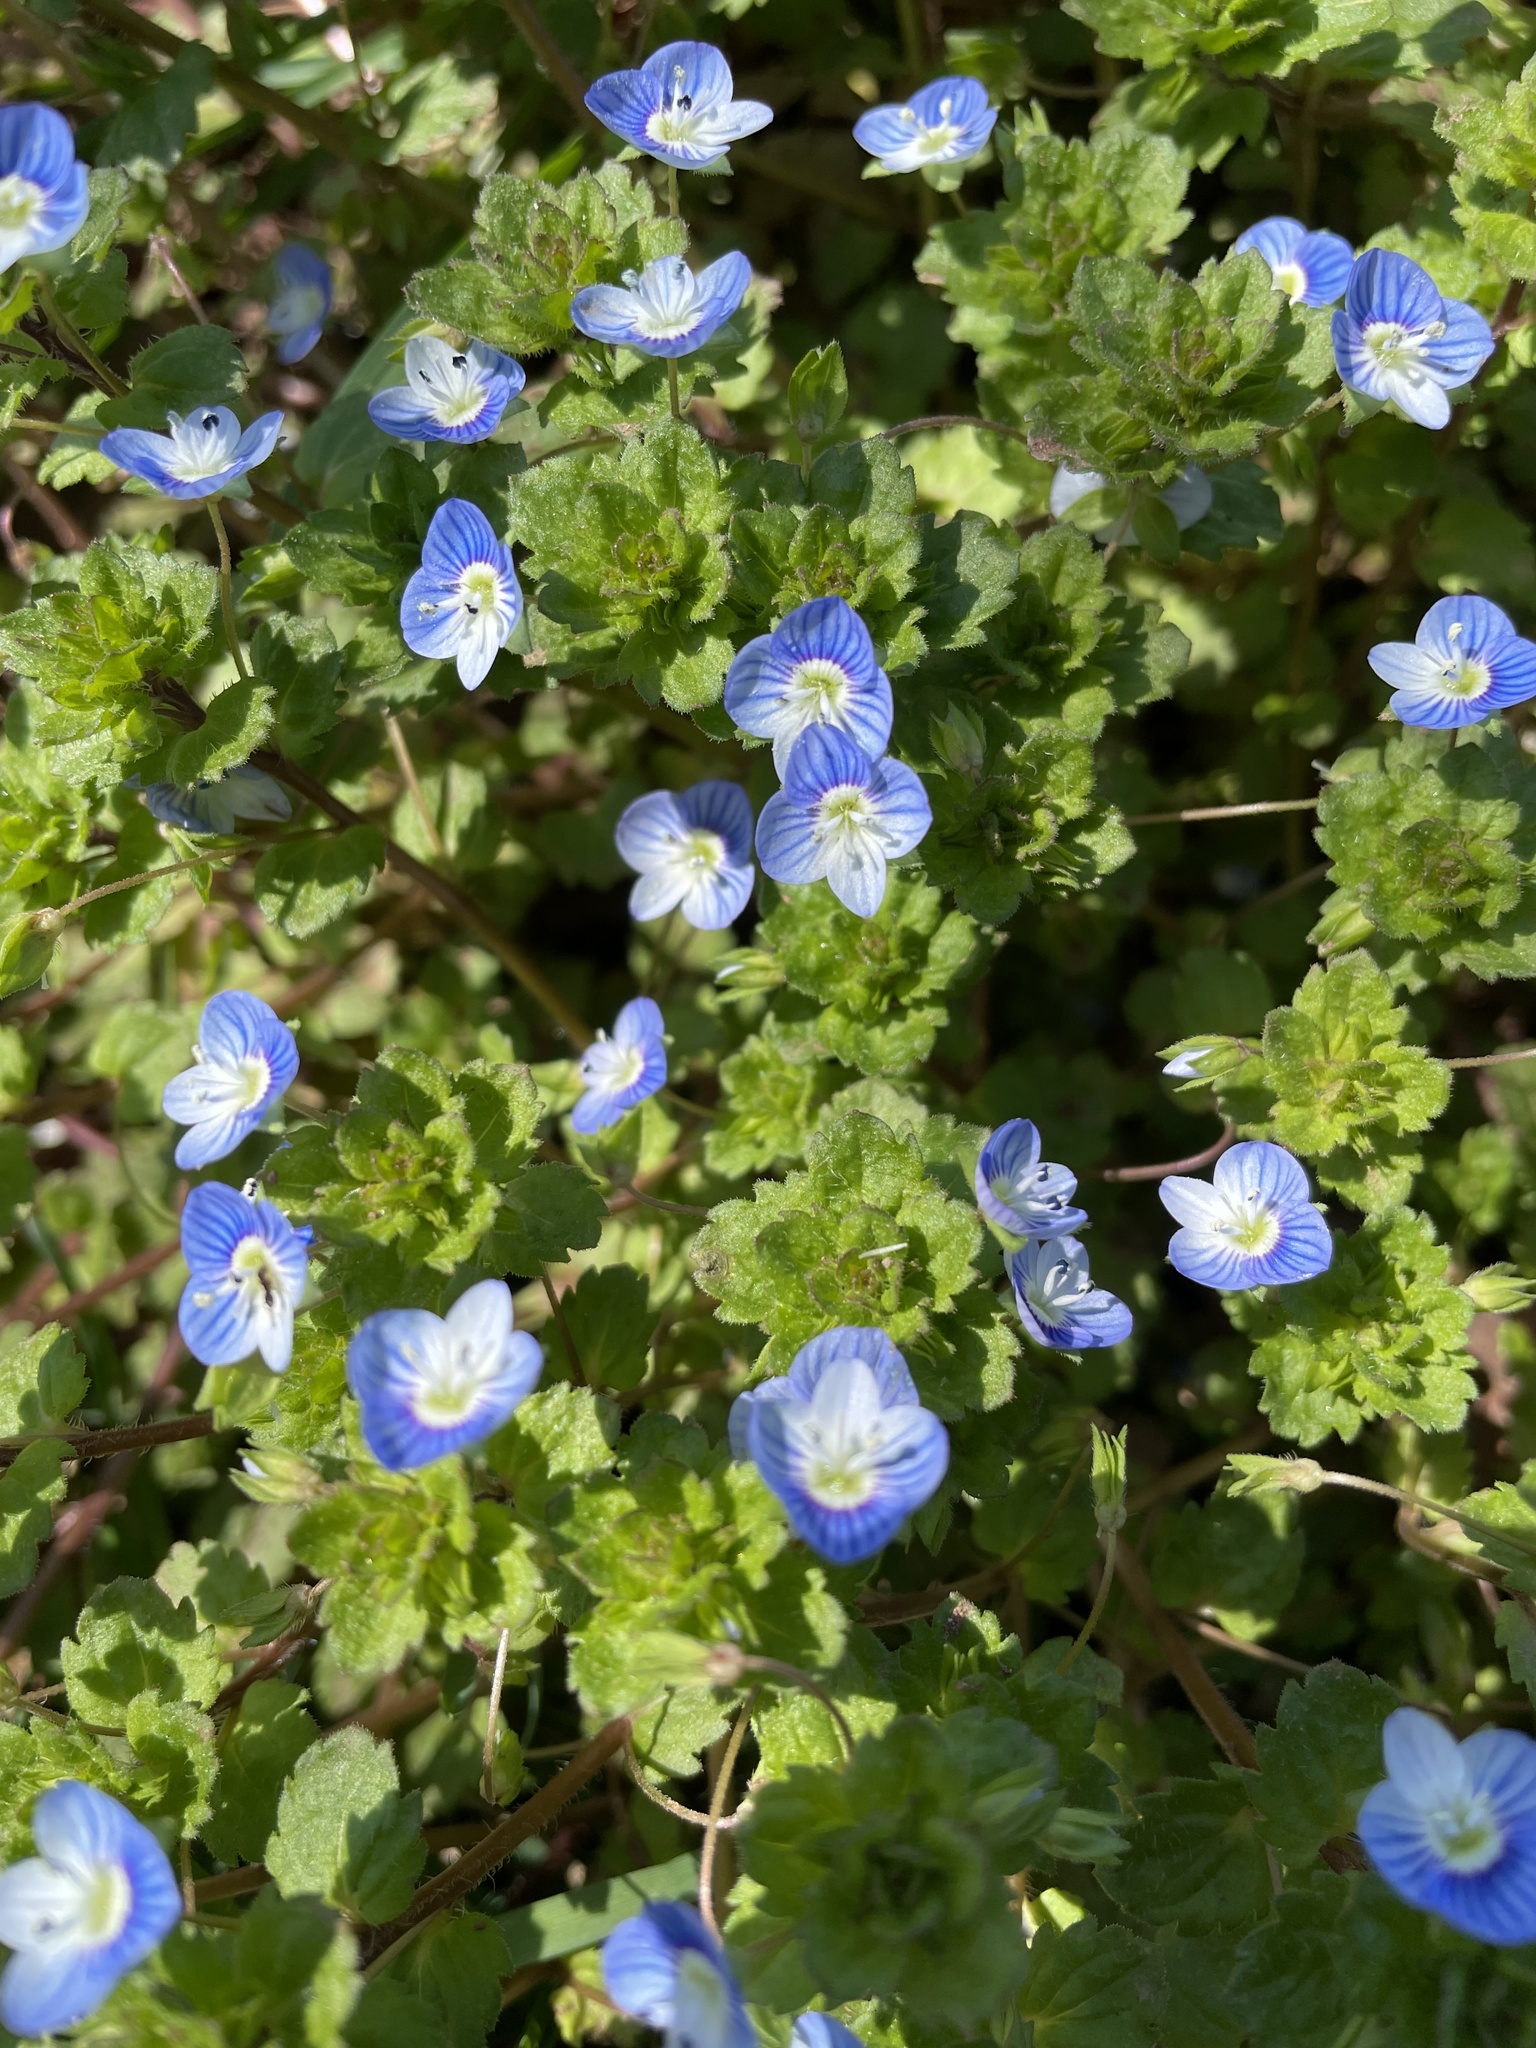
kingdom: Plantae
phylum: Tracheophyta
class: Magnoliopsida
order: Lamiales
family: Plantaginaceae
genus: Veronica
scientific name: Veronica persica
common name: Common field-speedwell
